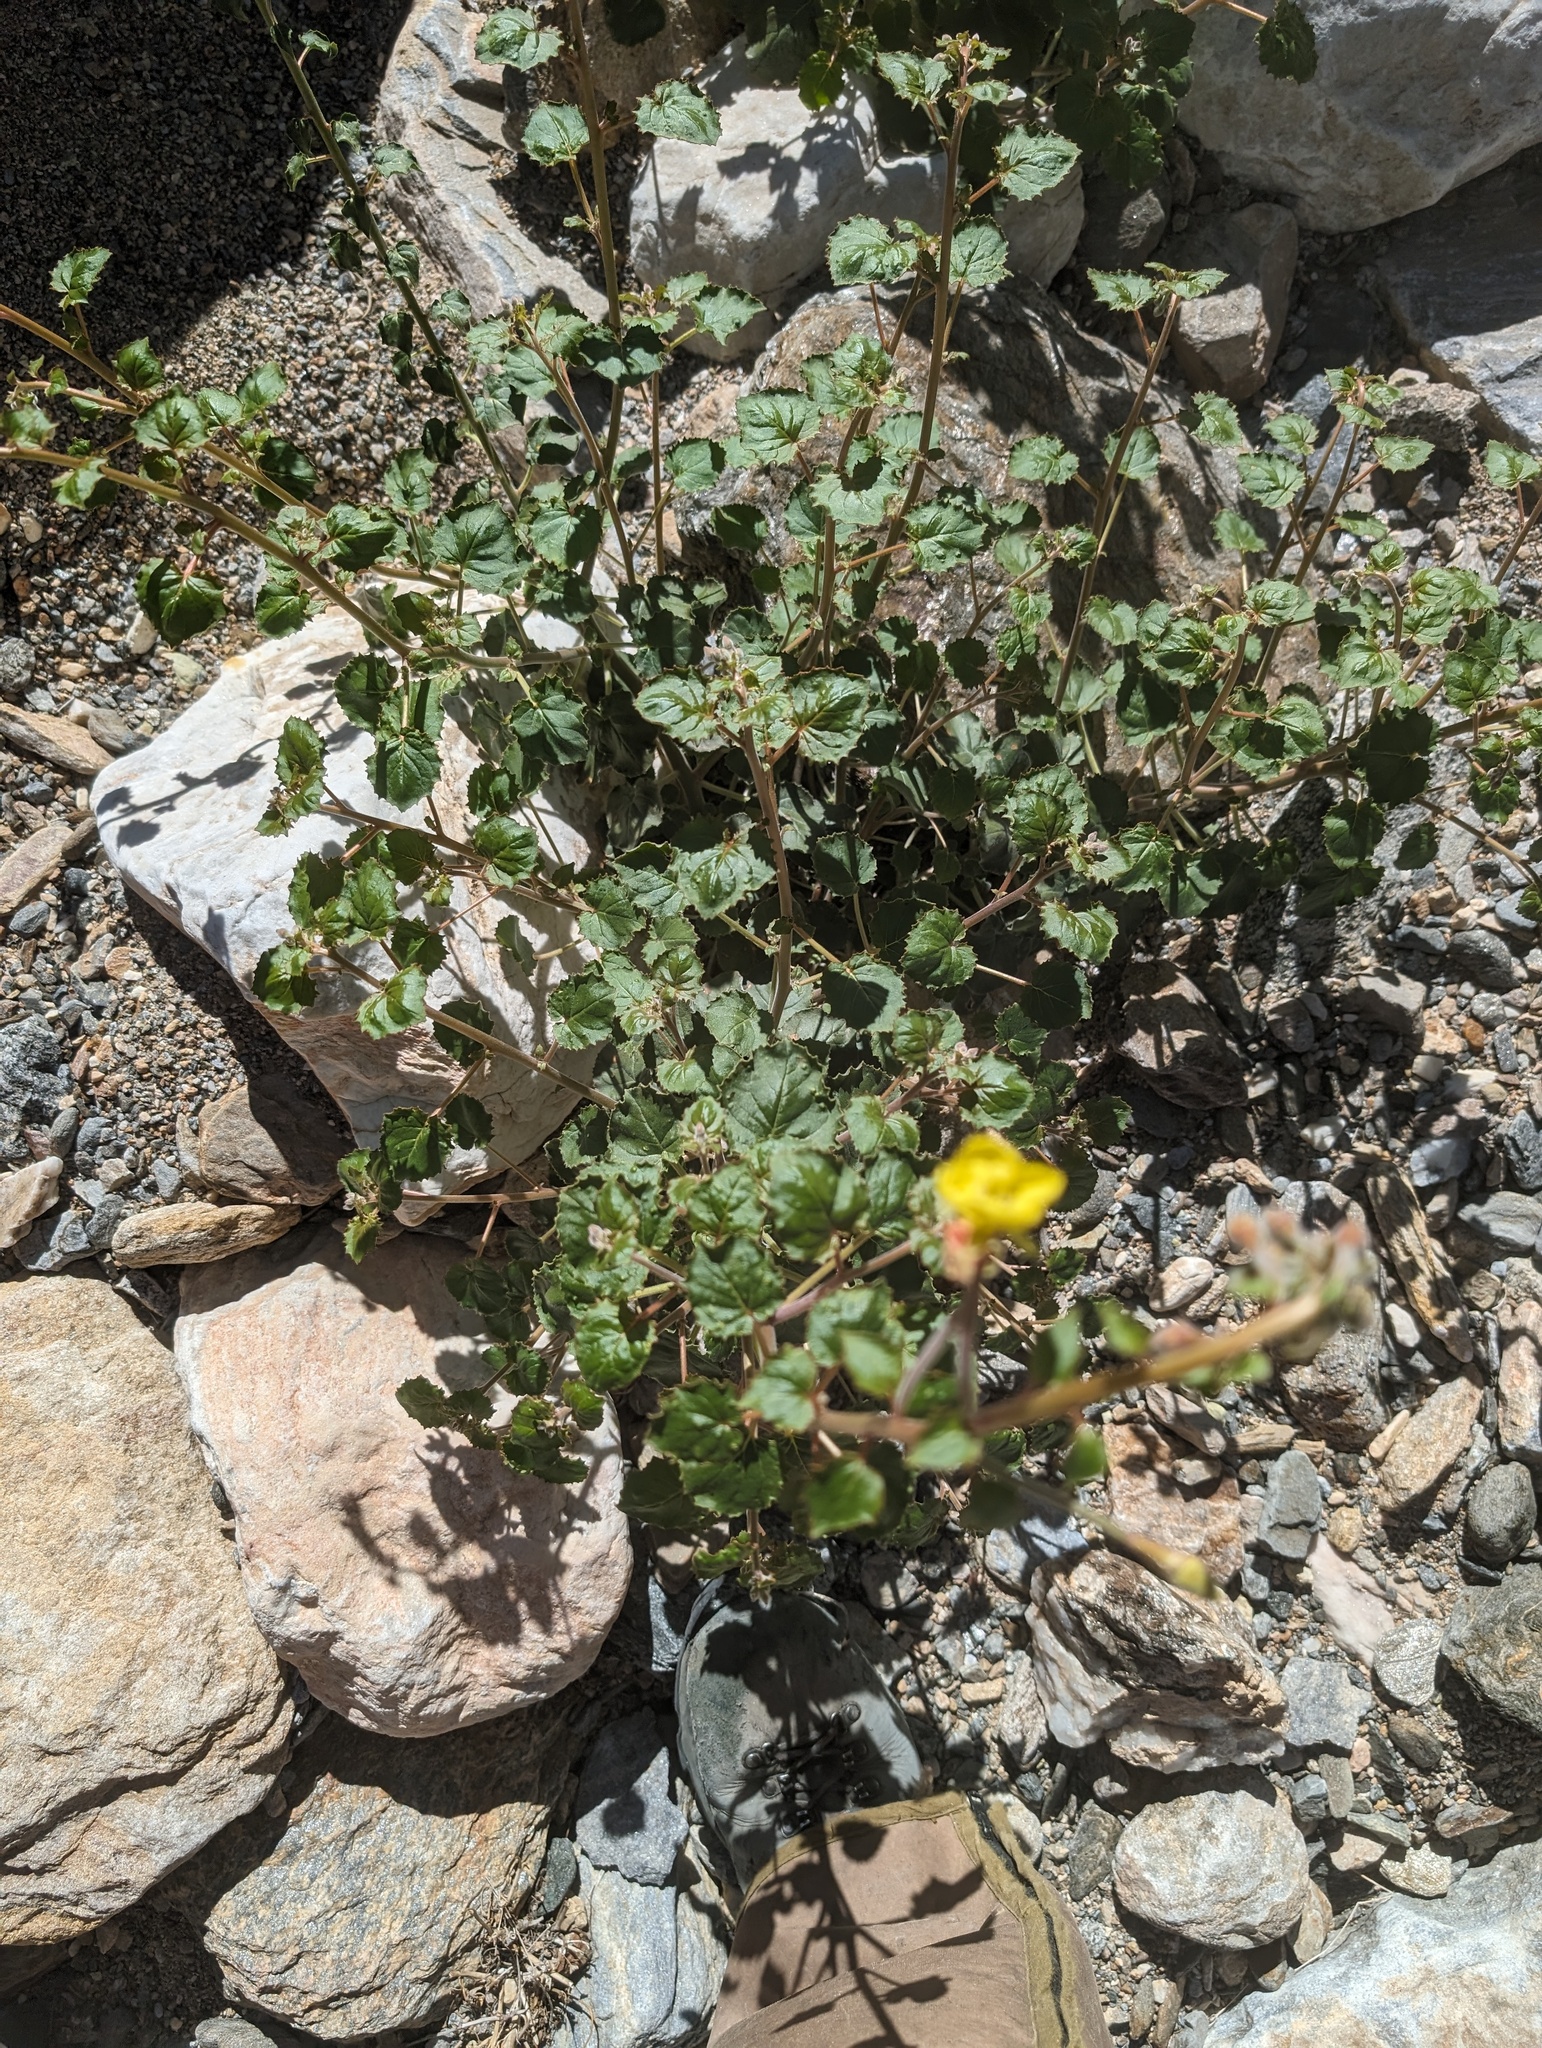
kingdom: Plantae
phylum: Tracheophyta
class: Magnoliopsida
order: Myrtales
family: Onagraceae
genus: Chylismia
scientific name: Chylismia cardiophylla
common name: Heartleaf suncup
